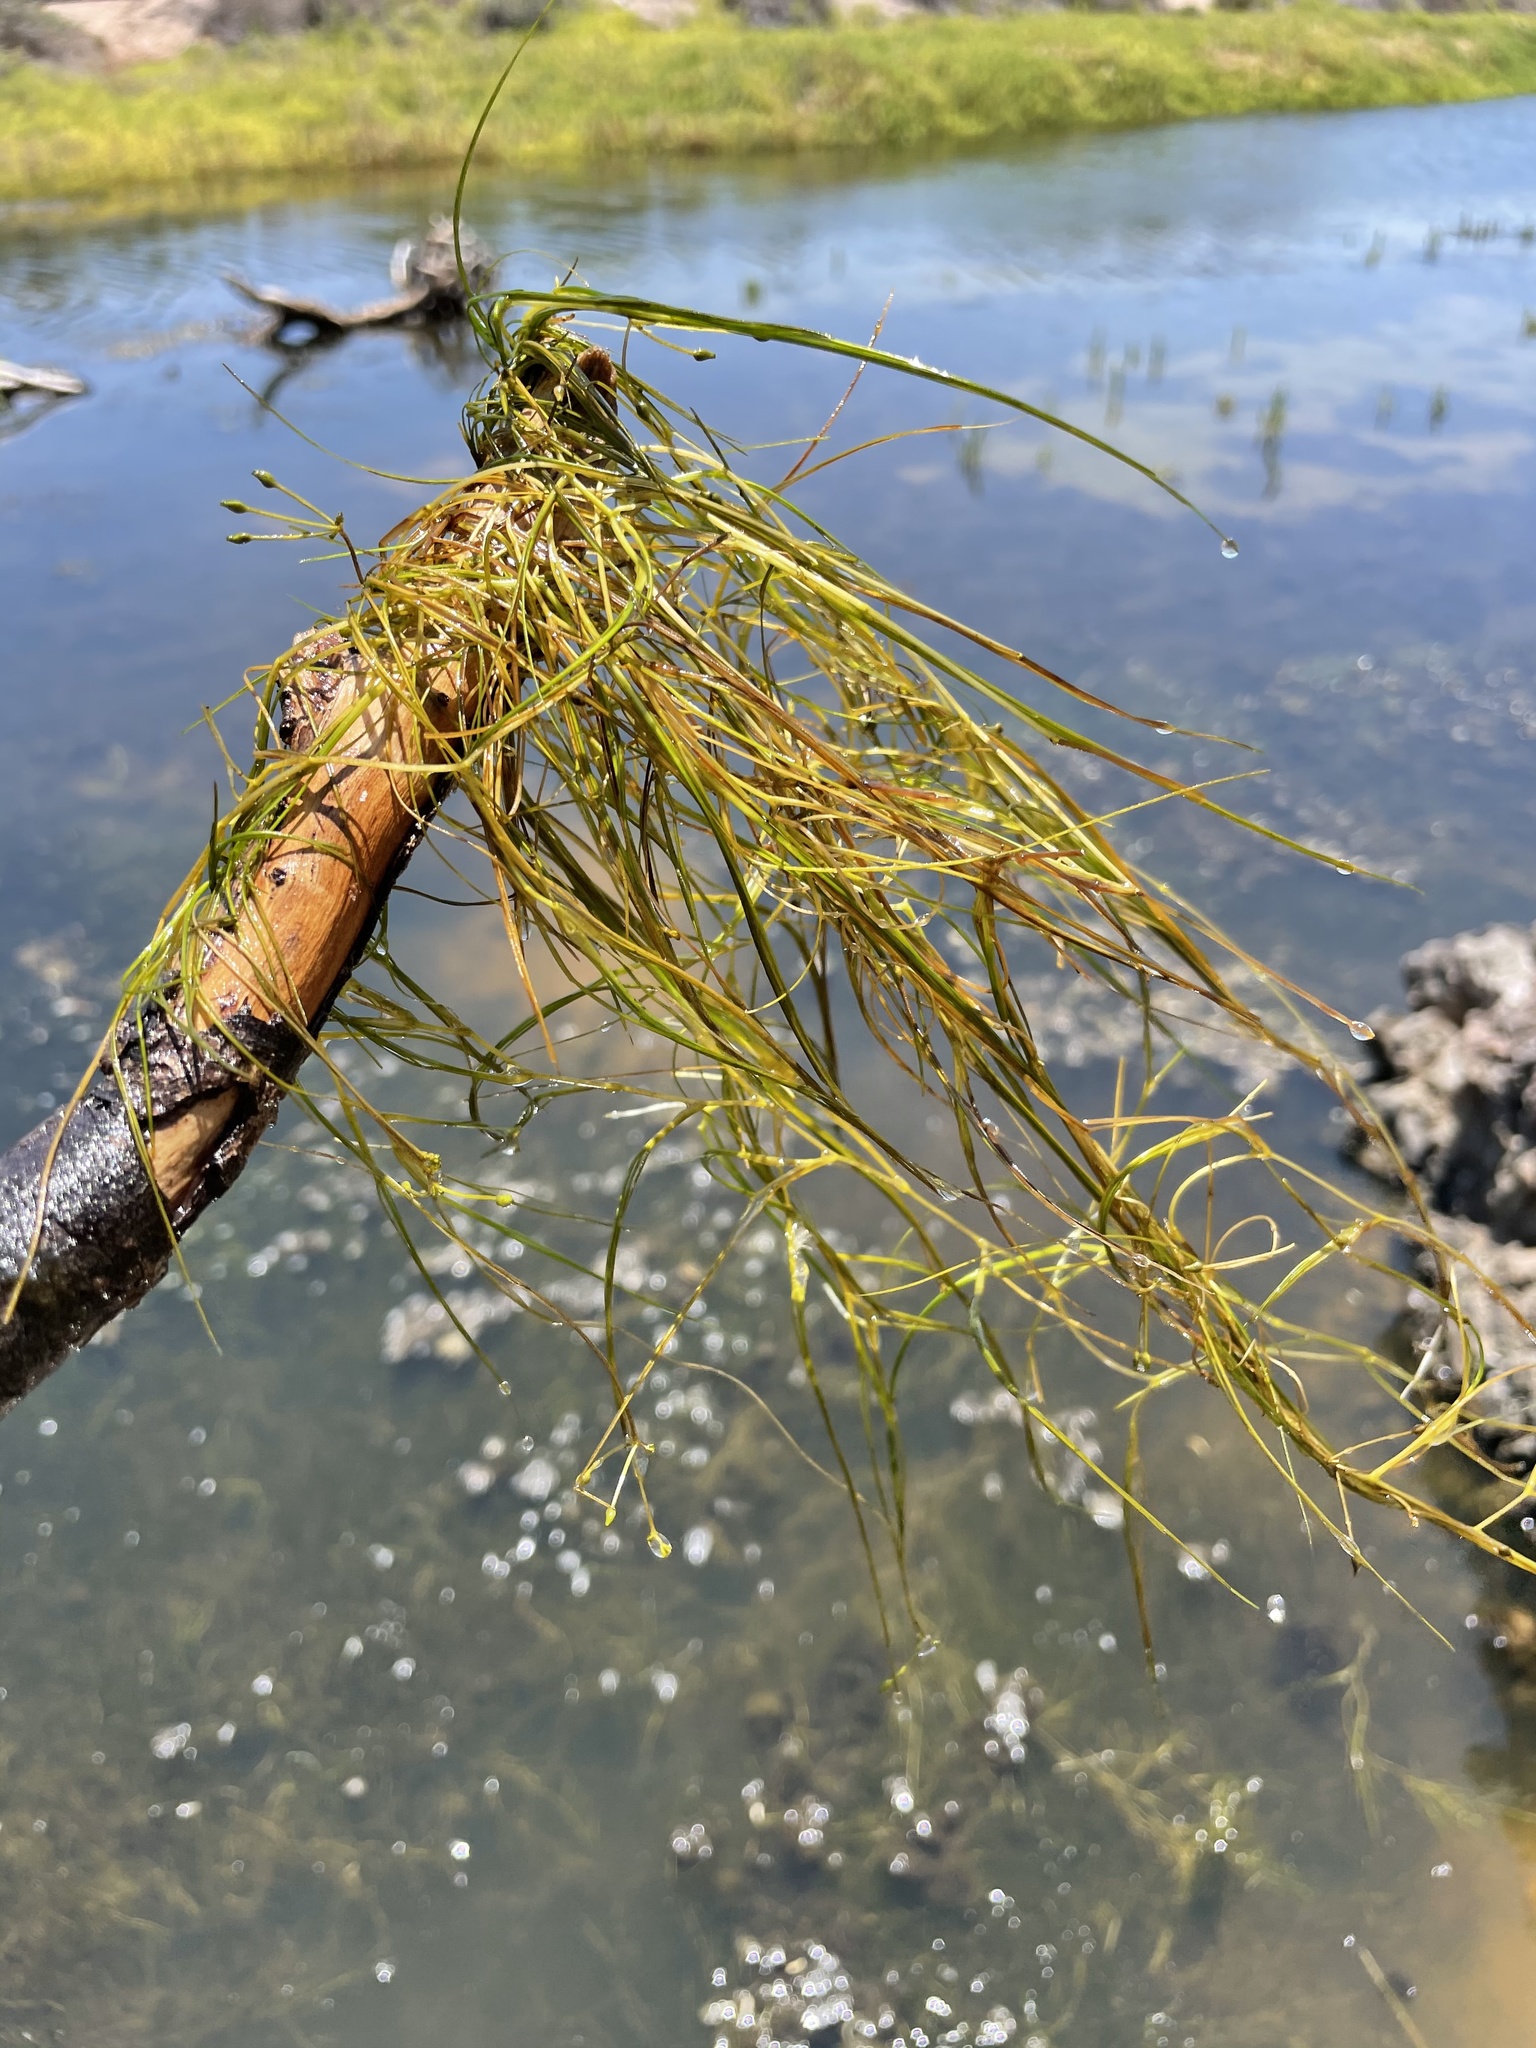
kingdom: Plantae
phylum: Tracheophyta
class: Liliopsida
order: Alismatales
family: Ruppiaceae
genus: Ruppia
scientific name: Ruppia maritima
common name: Beaked tasselweed
